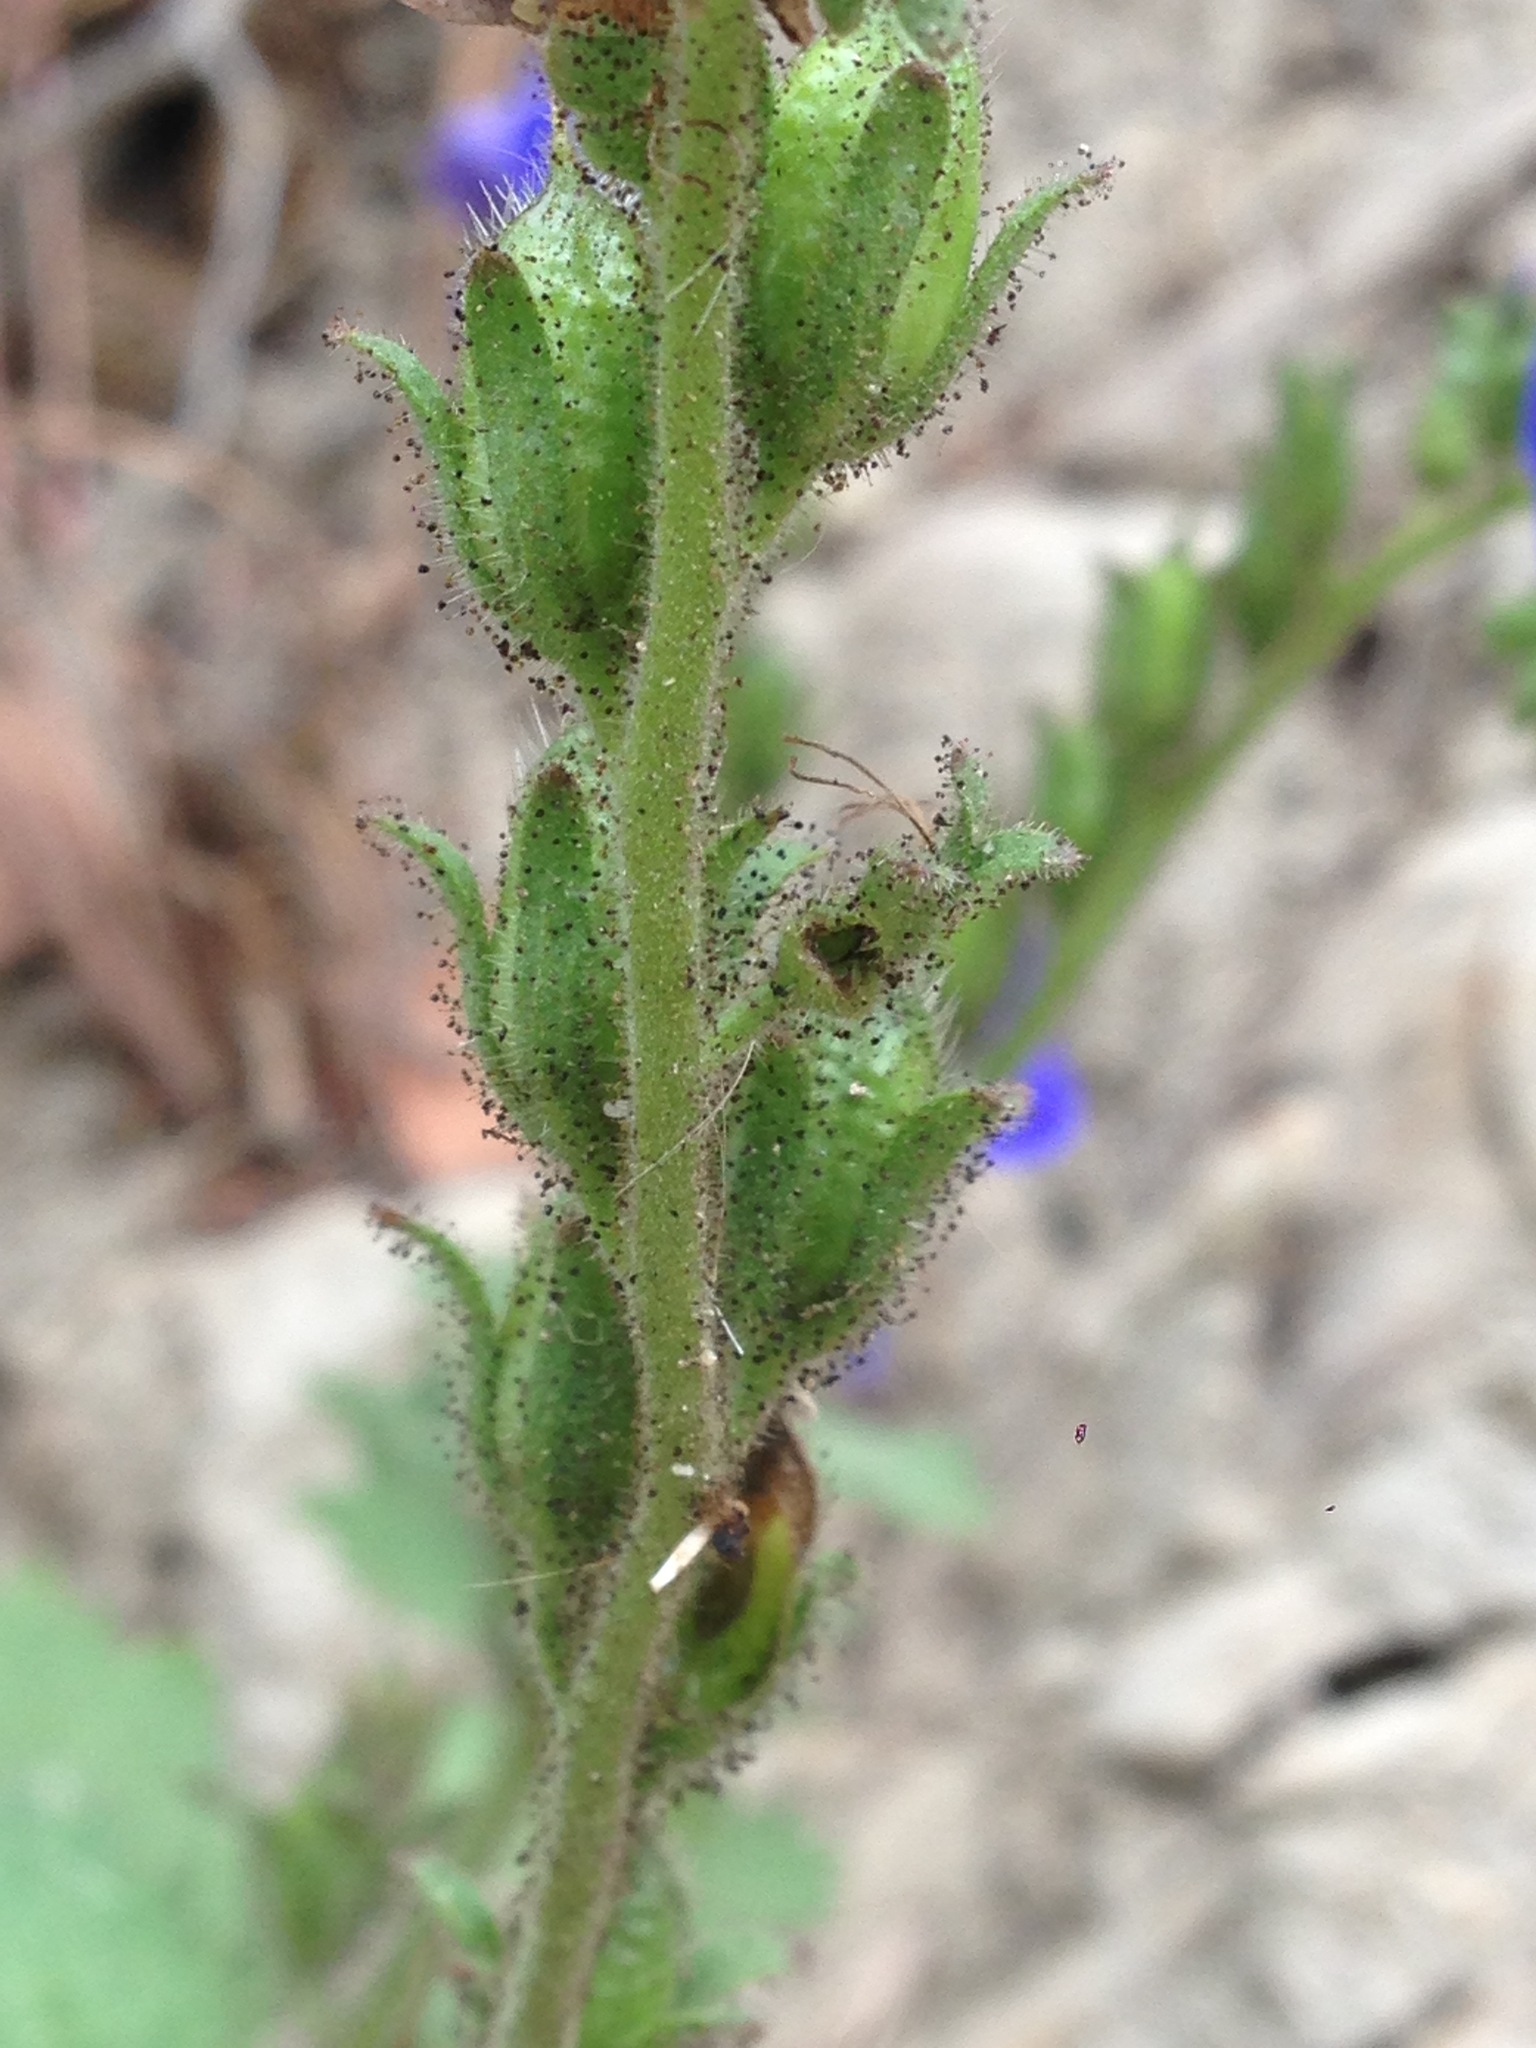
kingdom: Plantae
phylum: Tracheophyta
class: Magnoliopsida
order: Boraginales
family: Hydrophyllaceae
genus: Phacelia
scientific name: Phacelia viscida
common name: Sticky phacelia
